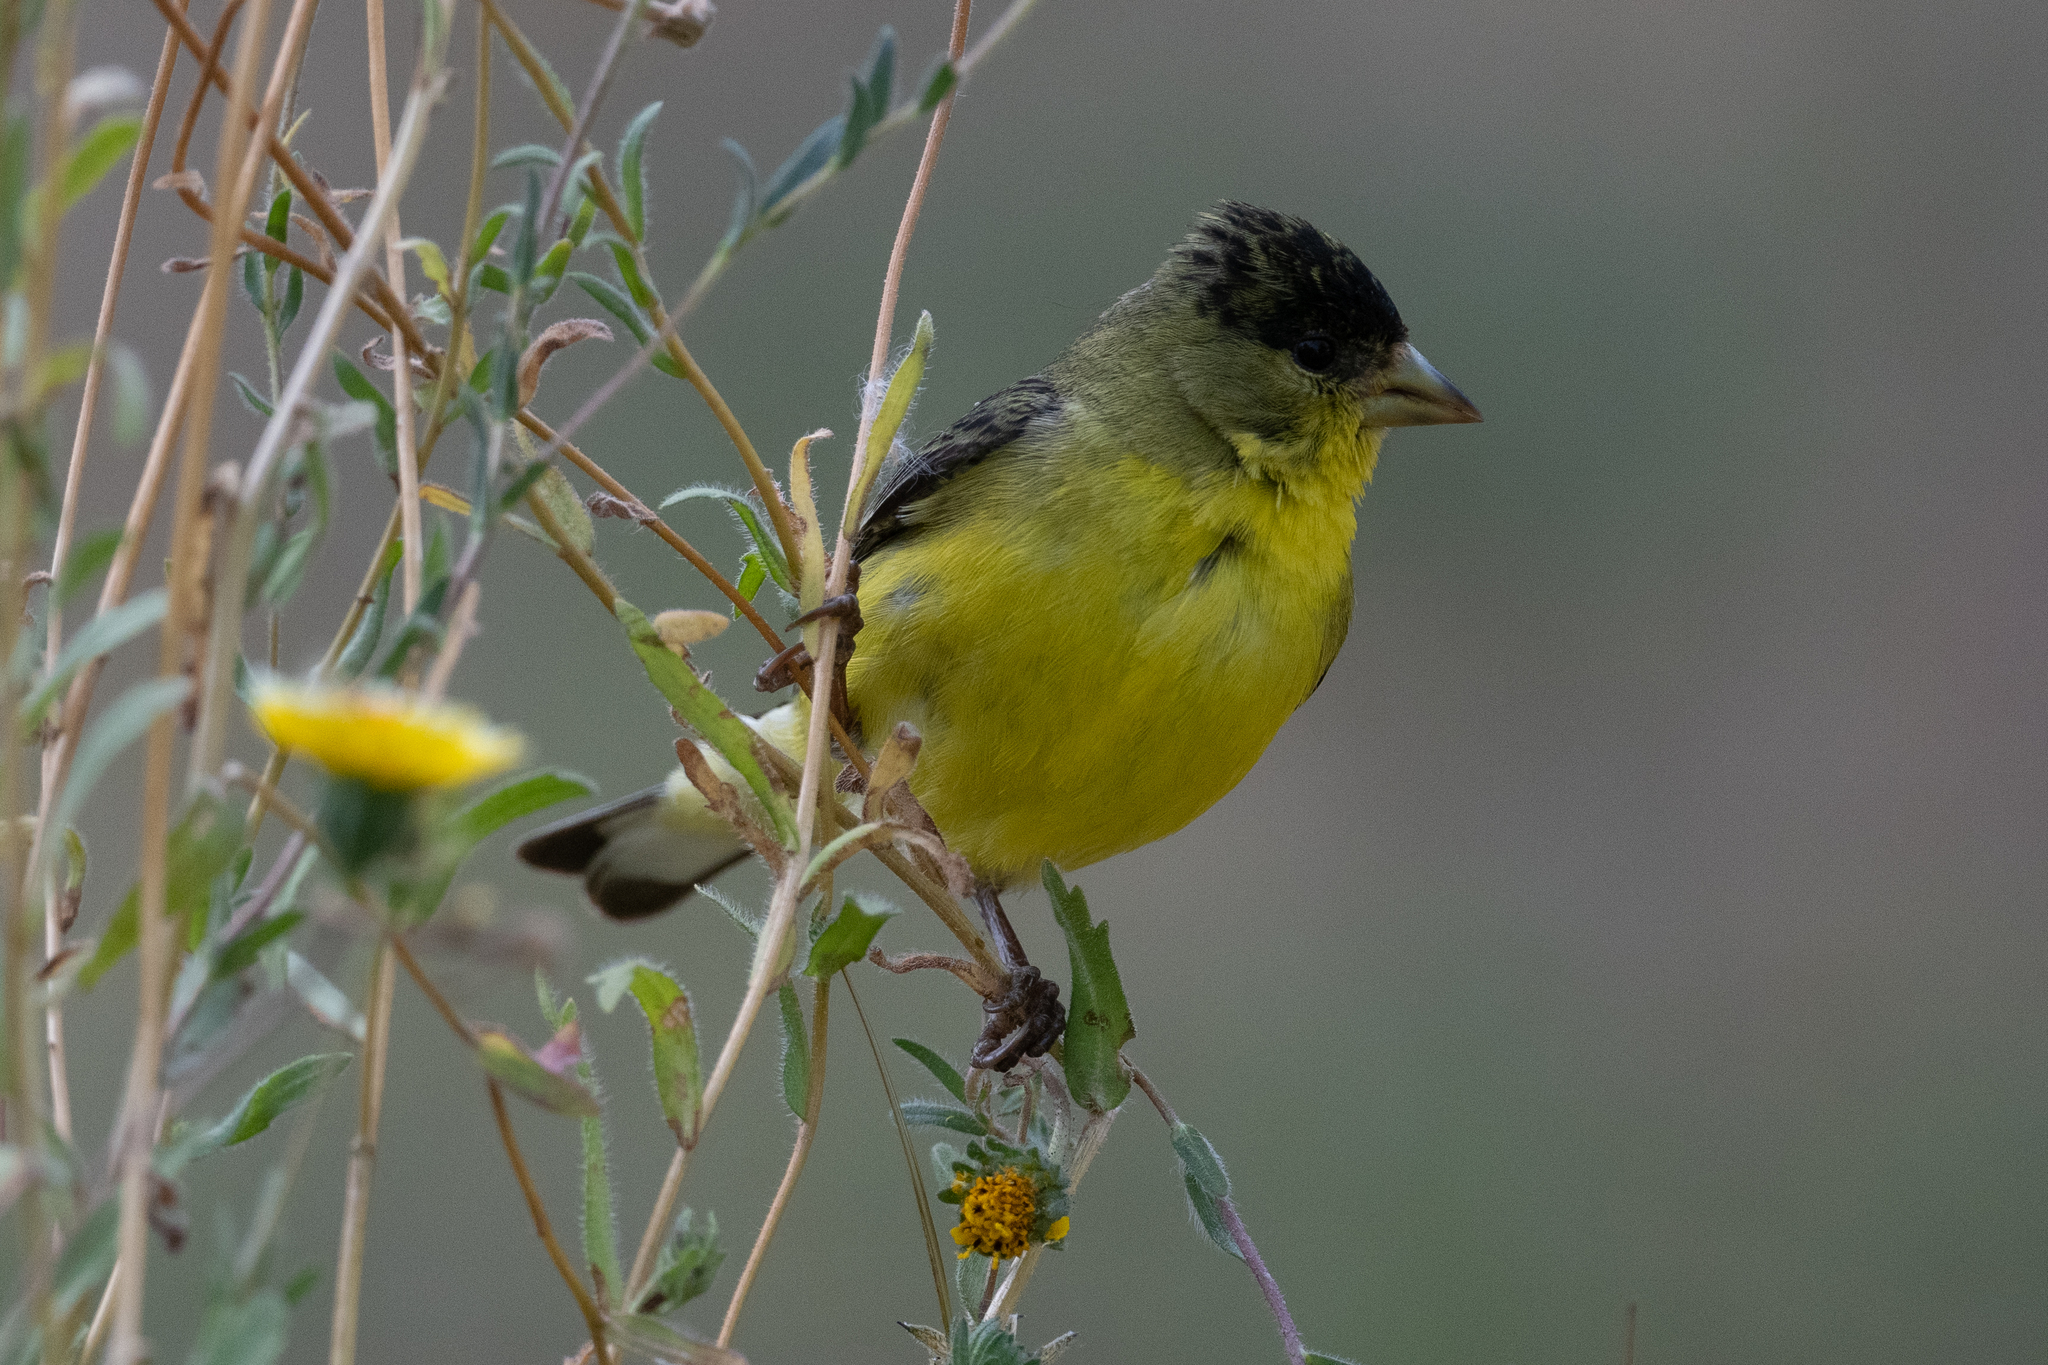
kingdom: Animalia
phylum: Chordata
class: Aves
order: Passeriformes
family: Fringillidae
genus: Spinus
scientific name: Spinus psaltria
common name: Lesser goldfinch
